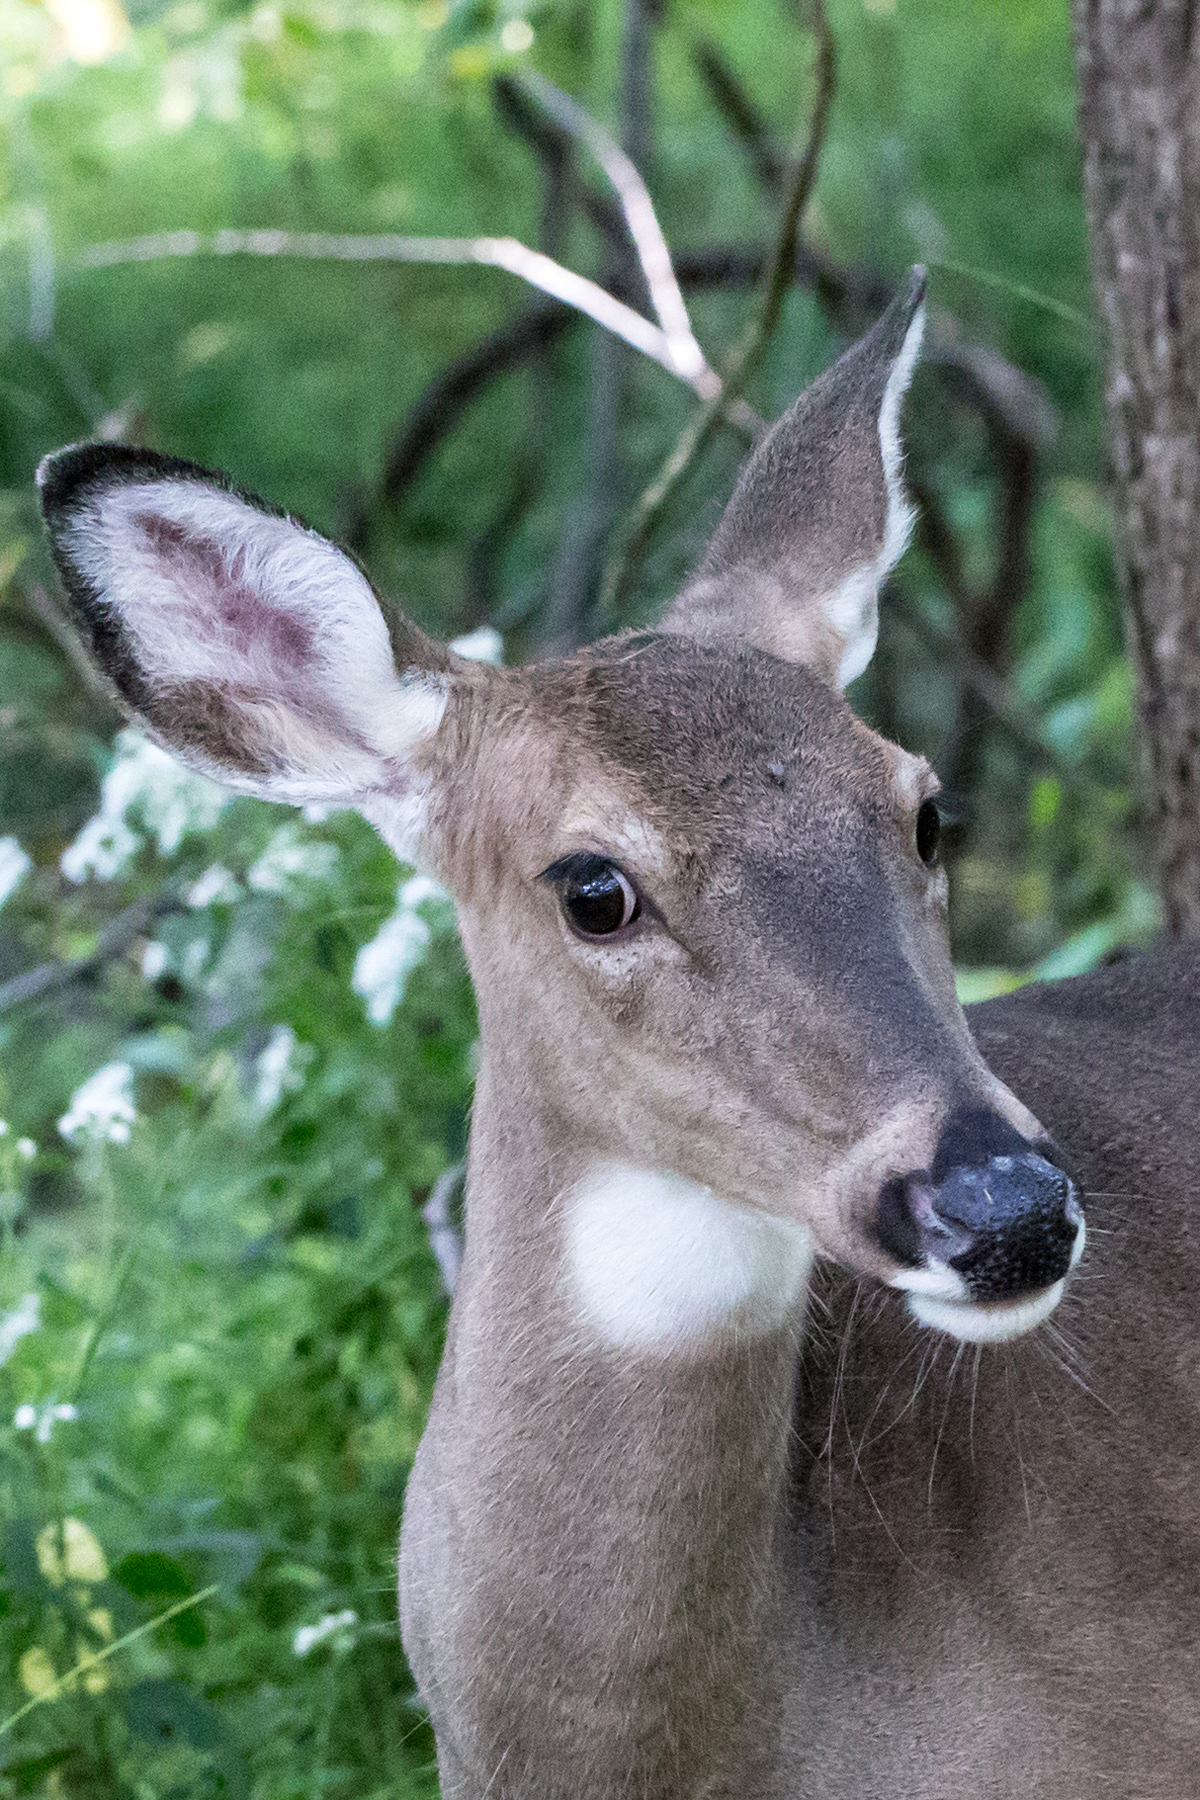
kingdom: Animalia
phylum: Chordata
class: Mammalia
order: Artiodactyla
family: Cervidae
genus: Odocoileus
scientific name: Odocoileus virginianus
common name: White-tailed deer
